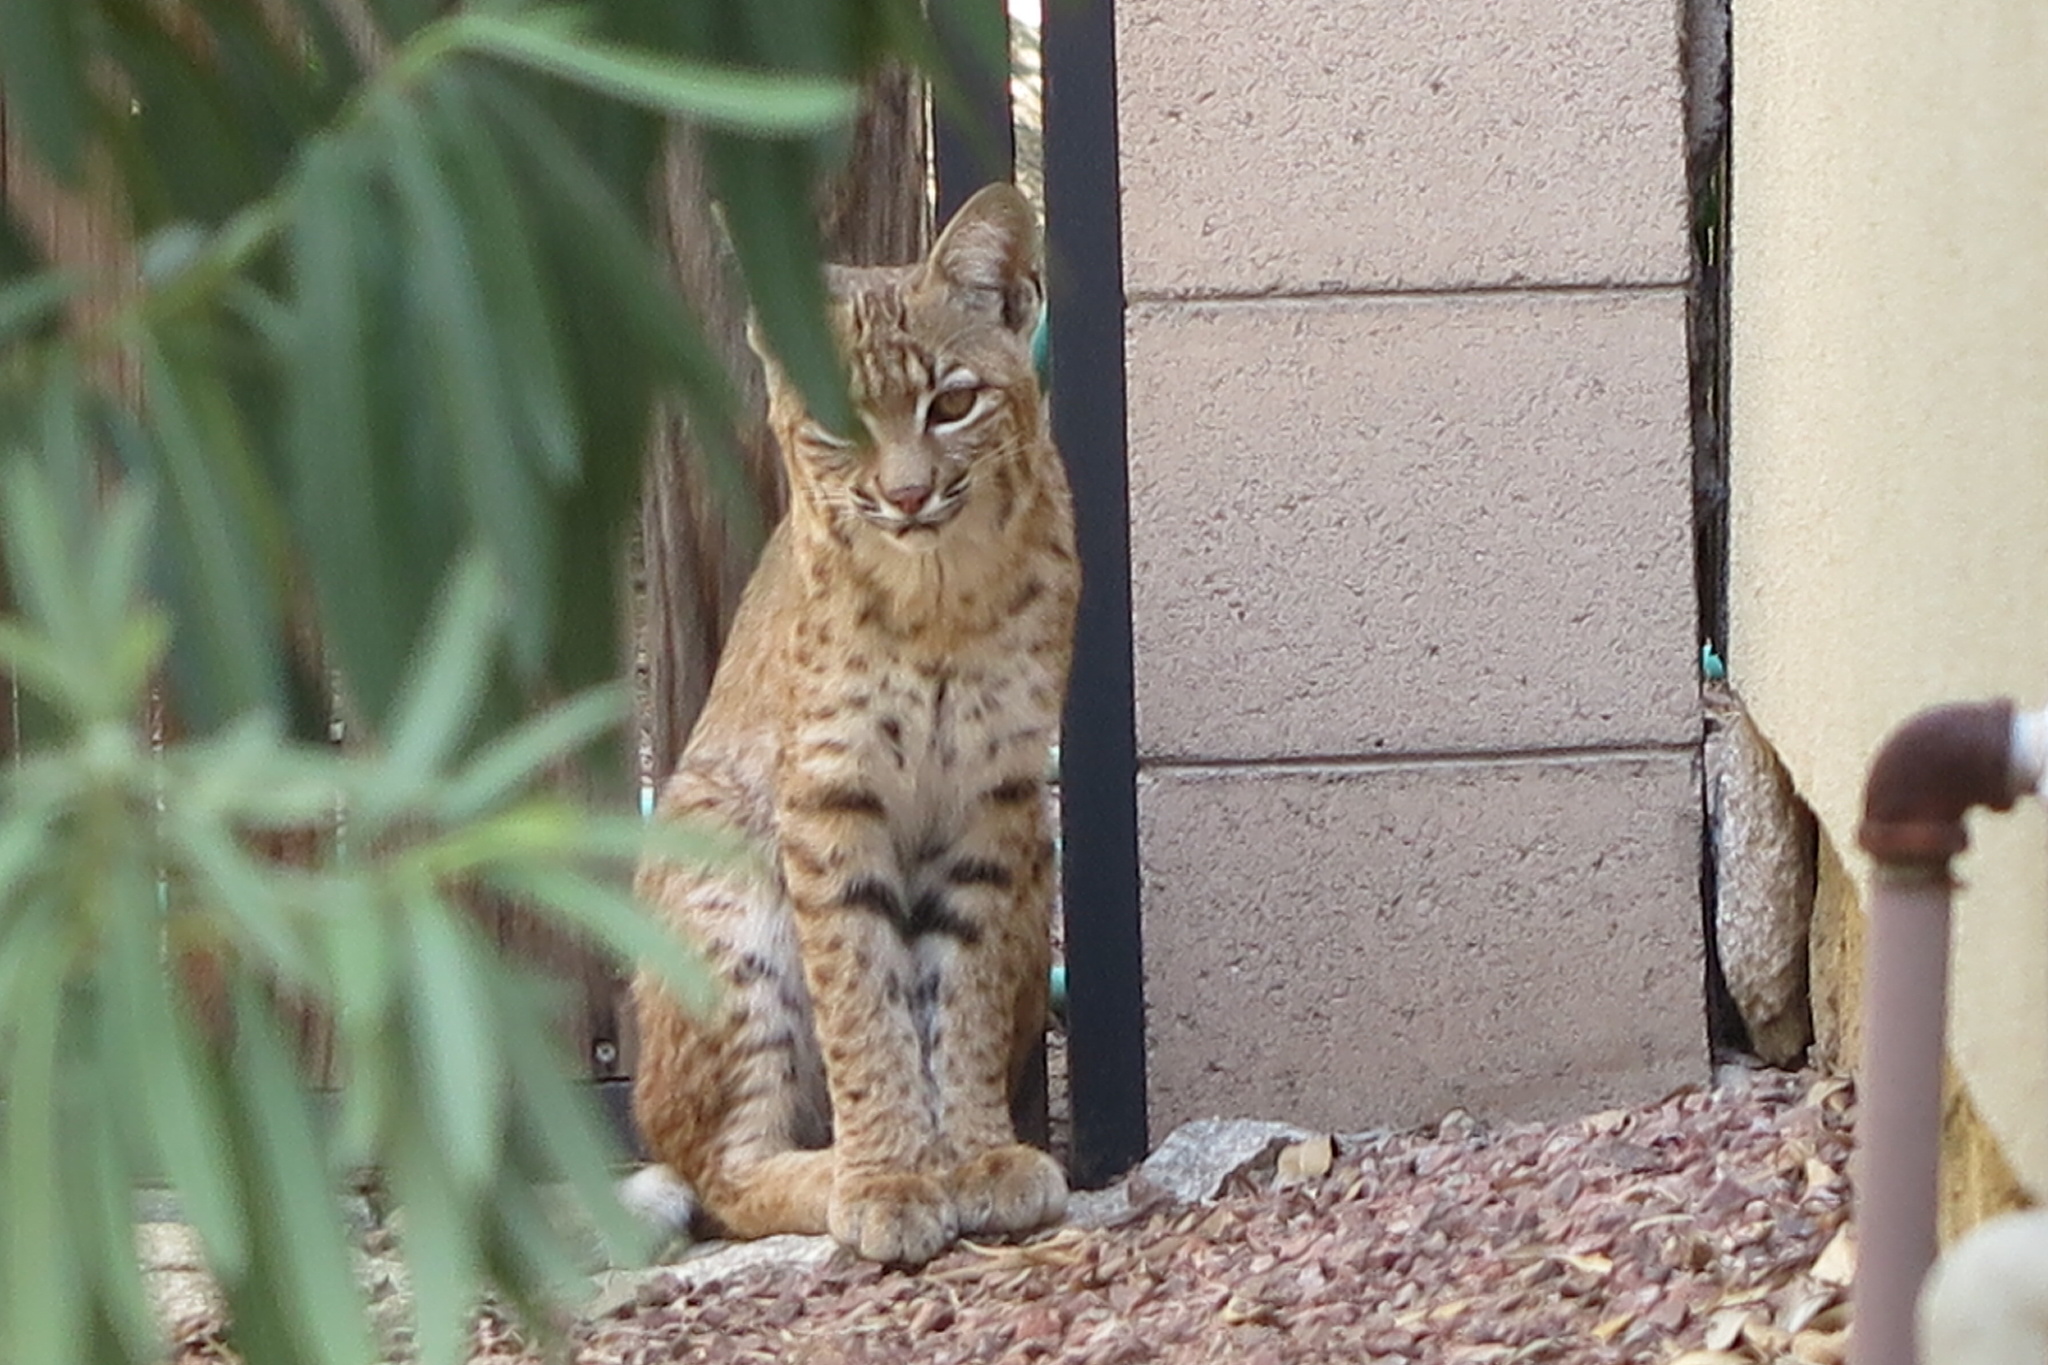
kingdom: Animalia
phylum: Chordata
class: Mammalia
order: Carnivora
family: Felidae
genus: Lynx
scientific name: Lynx rufus
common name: Bobcat
